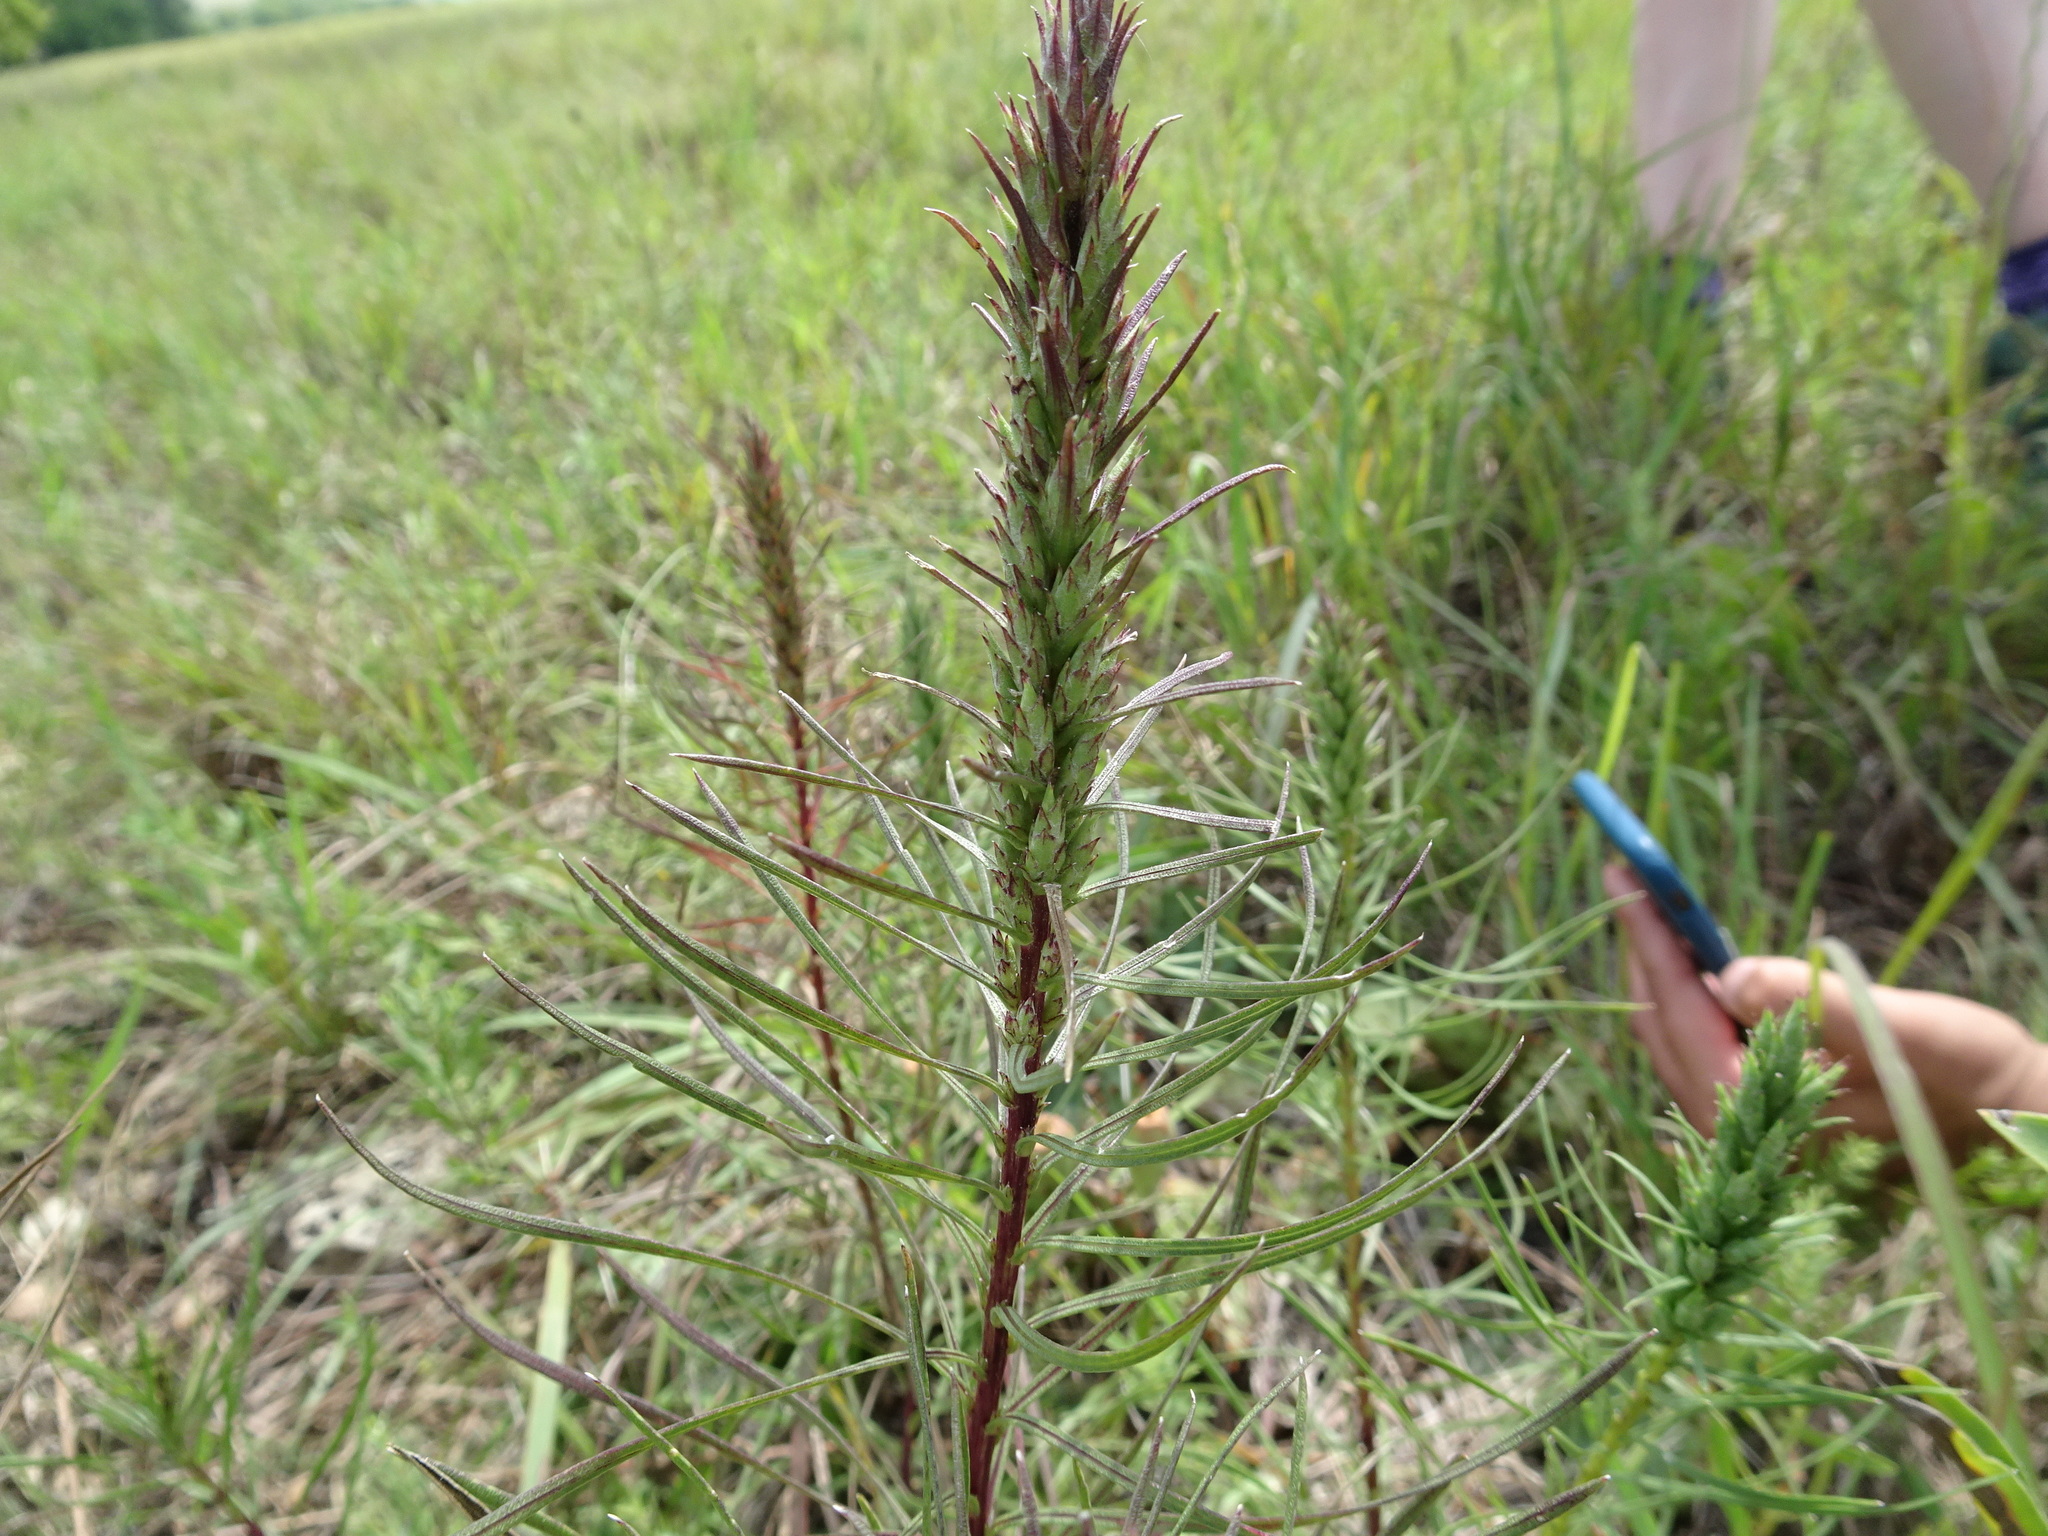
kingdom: Plantae
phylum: Tracheophyta
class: Magnoliopsida
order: Asterales
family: Asteraceae
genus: Liatris
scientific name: Liatris punctata
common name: Dotted gayfeather
